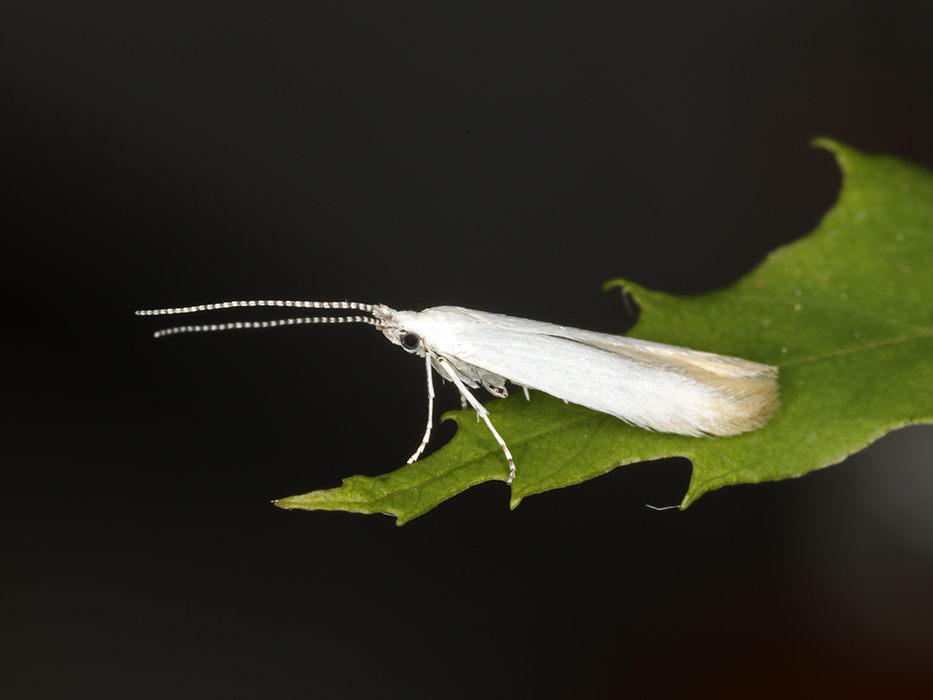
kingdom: Animalia
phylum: Arthropoda
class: Insecta
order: Lepidoptera
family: Coleophoridae
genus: Coleophora
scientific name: Coleophora leucochrysella
